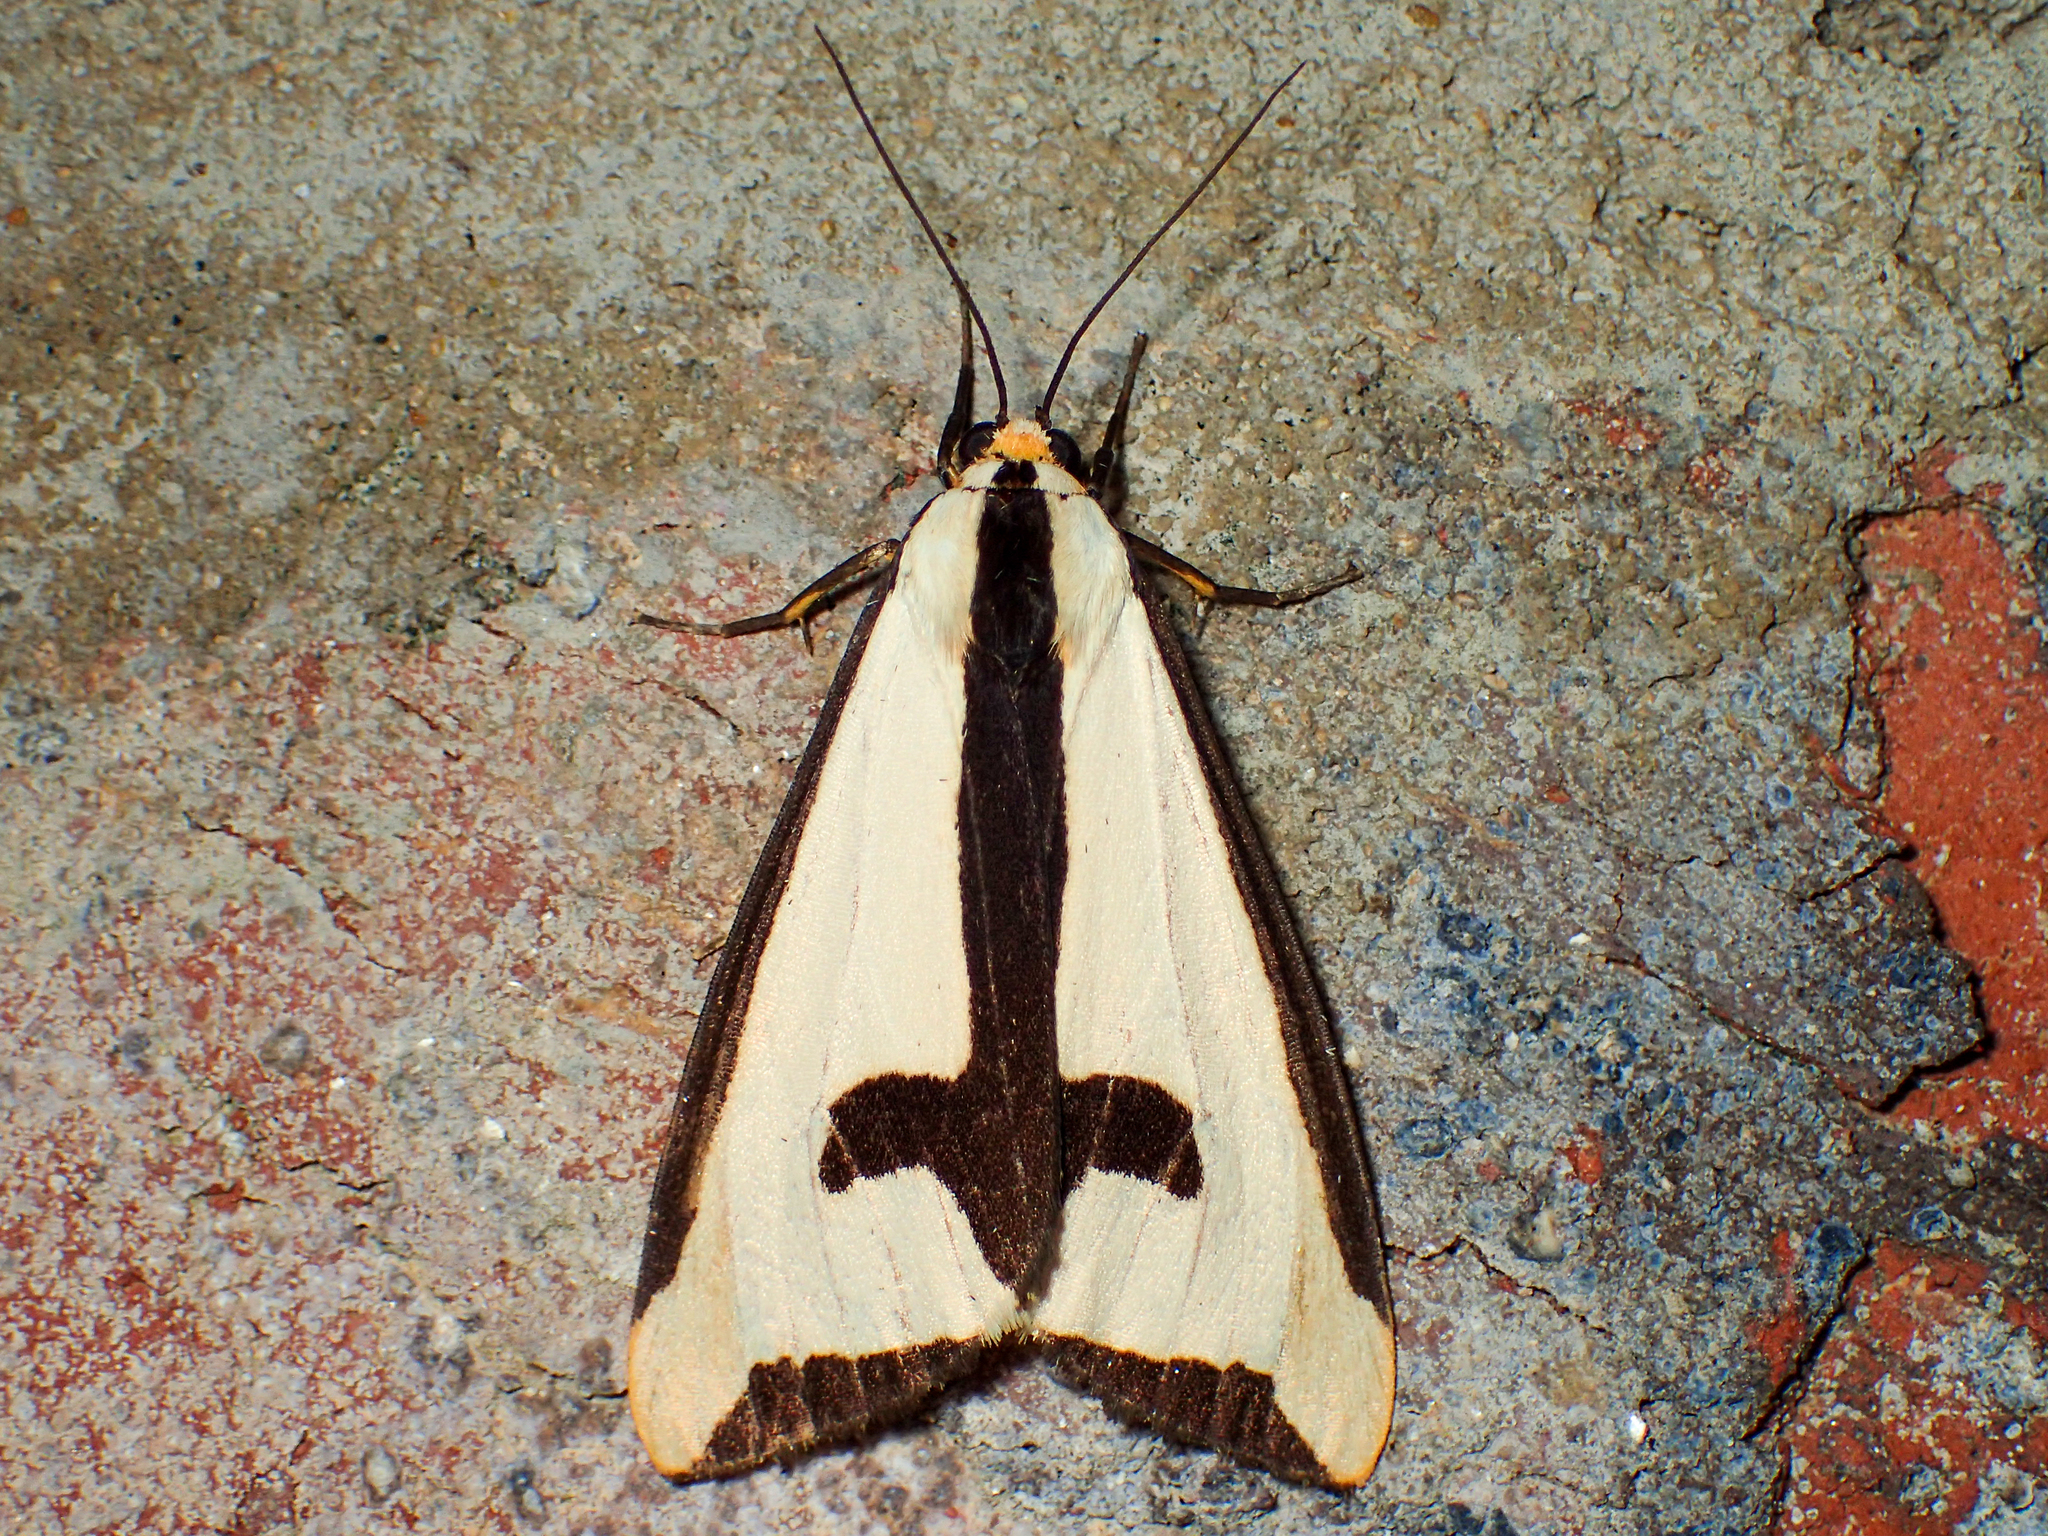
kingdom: Animalia
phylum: Arthropoda
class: Insecta
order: Lepidoptera
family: Erebidae
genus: Haploa
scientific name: Haploa clymene
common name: Clymene moth
